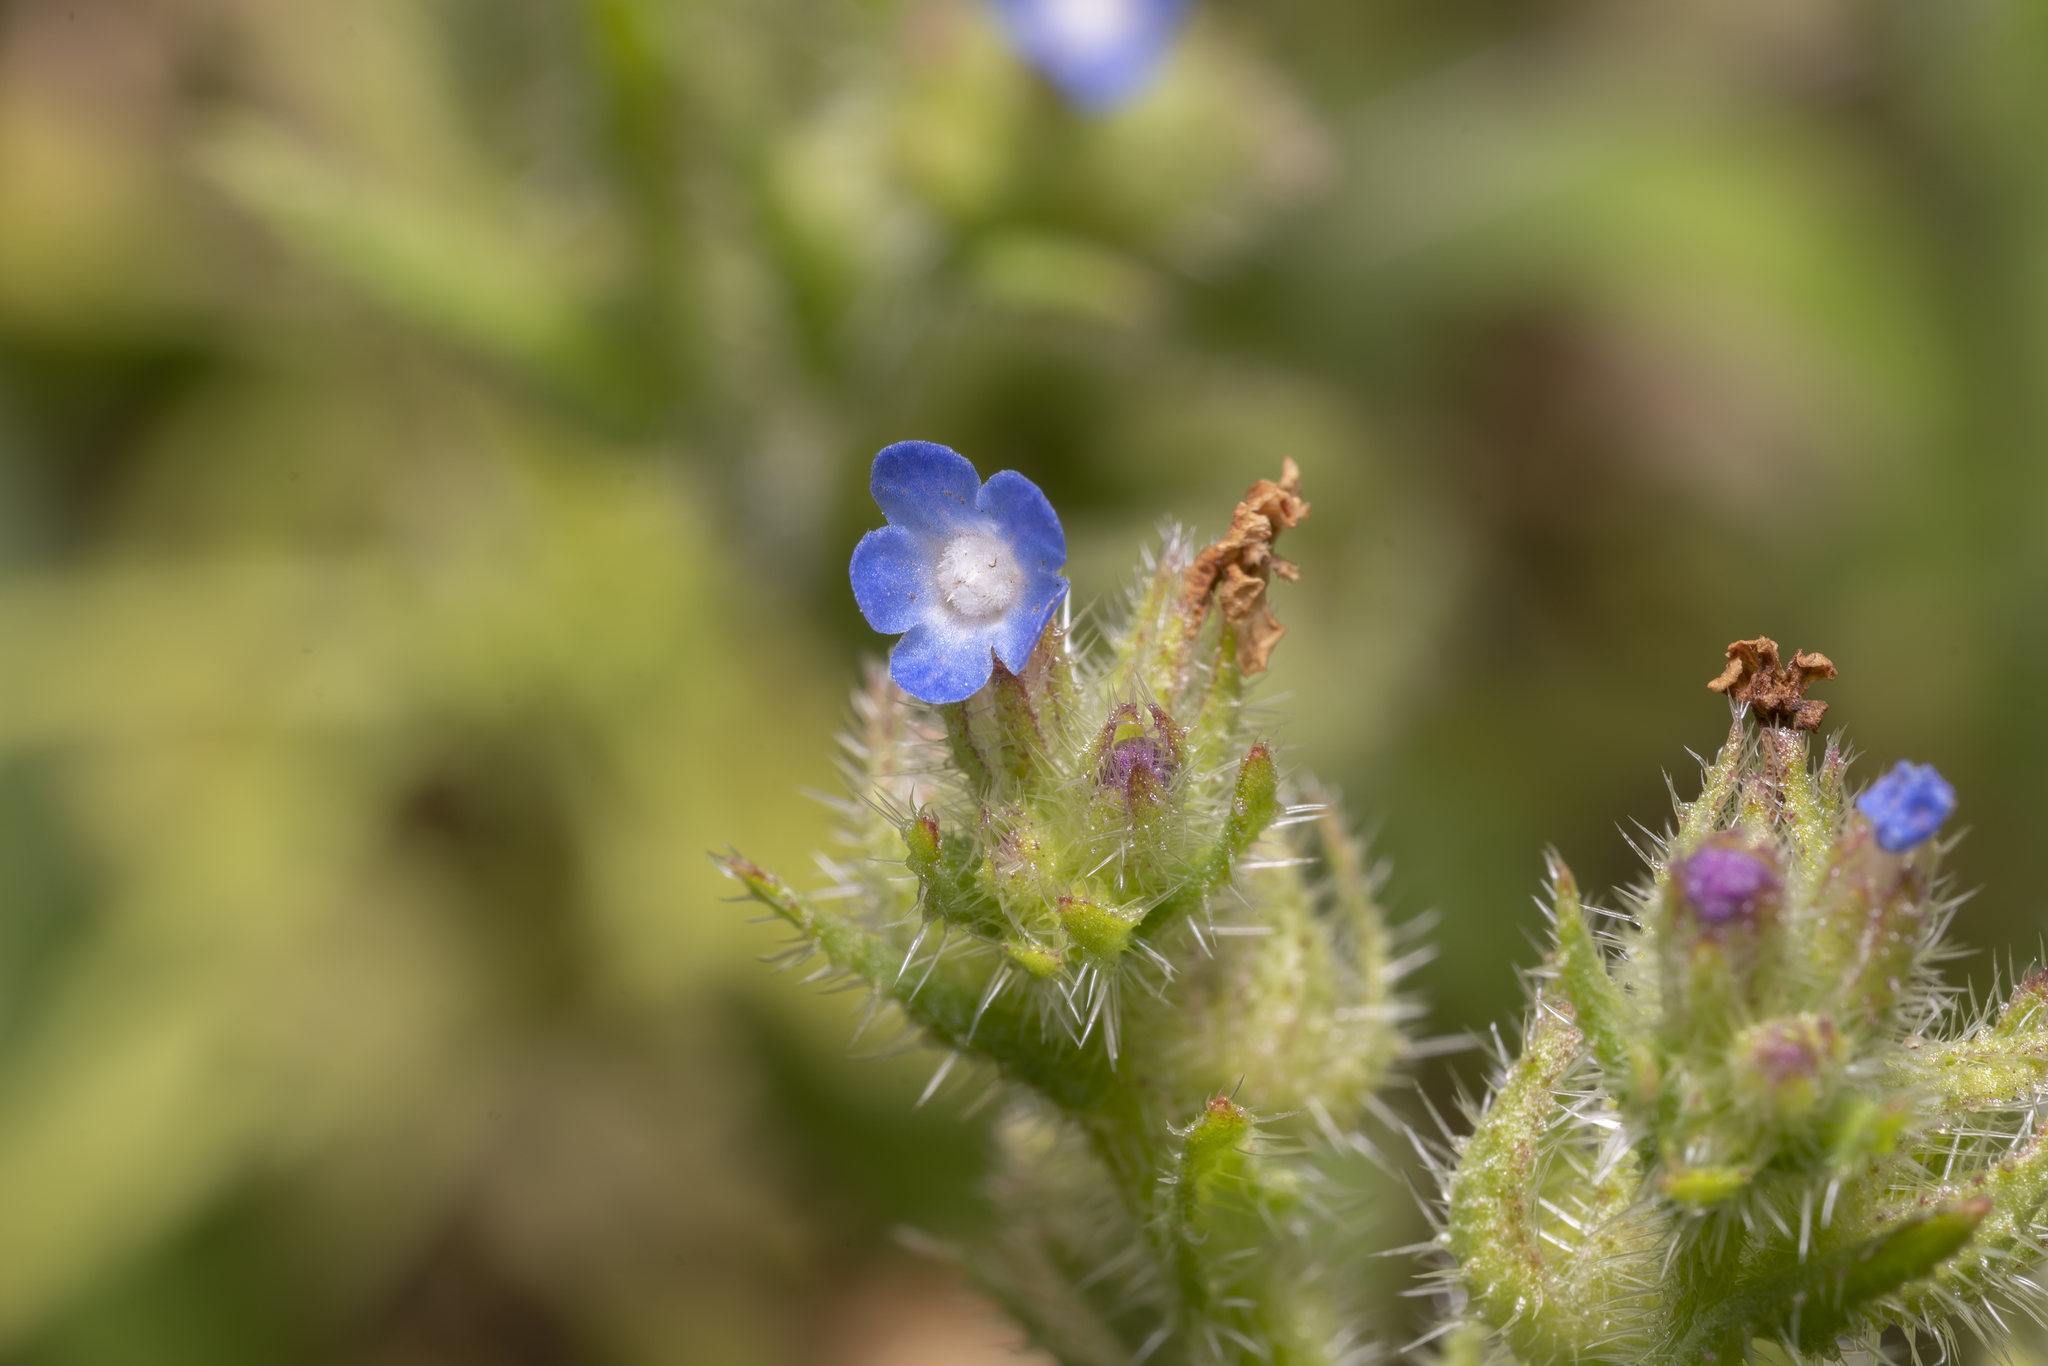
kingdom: Plantae
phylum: Tracheophyta
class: Magnoliopsida
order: Boraginales
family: Boraginaceae
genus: Lycopsis
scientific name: Lycopsis arvensis
